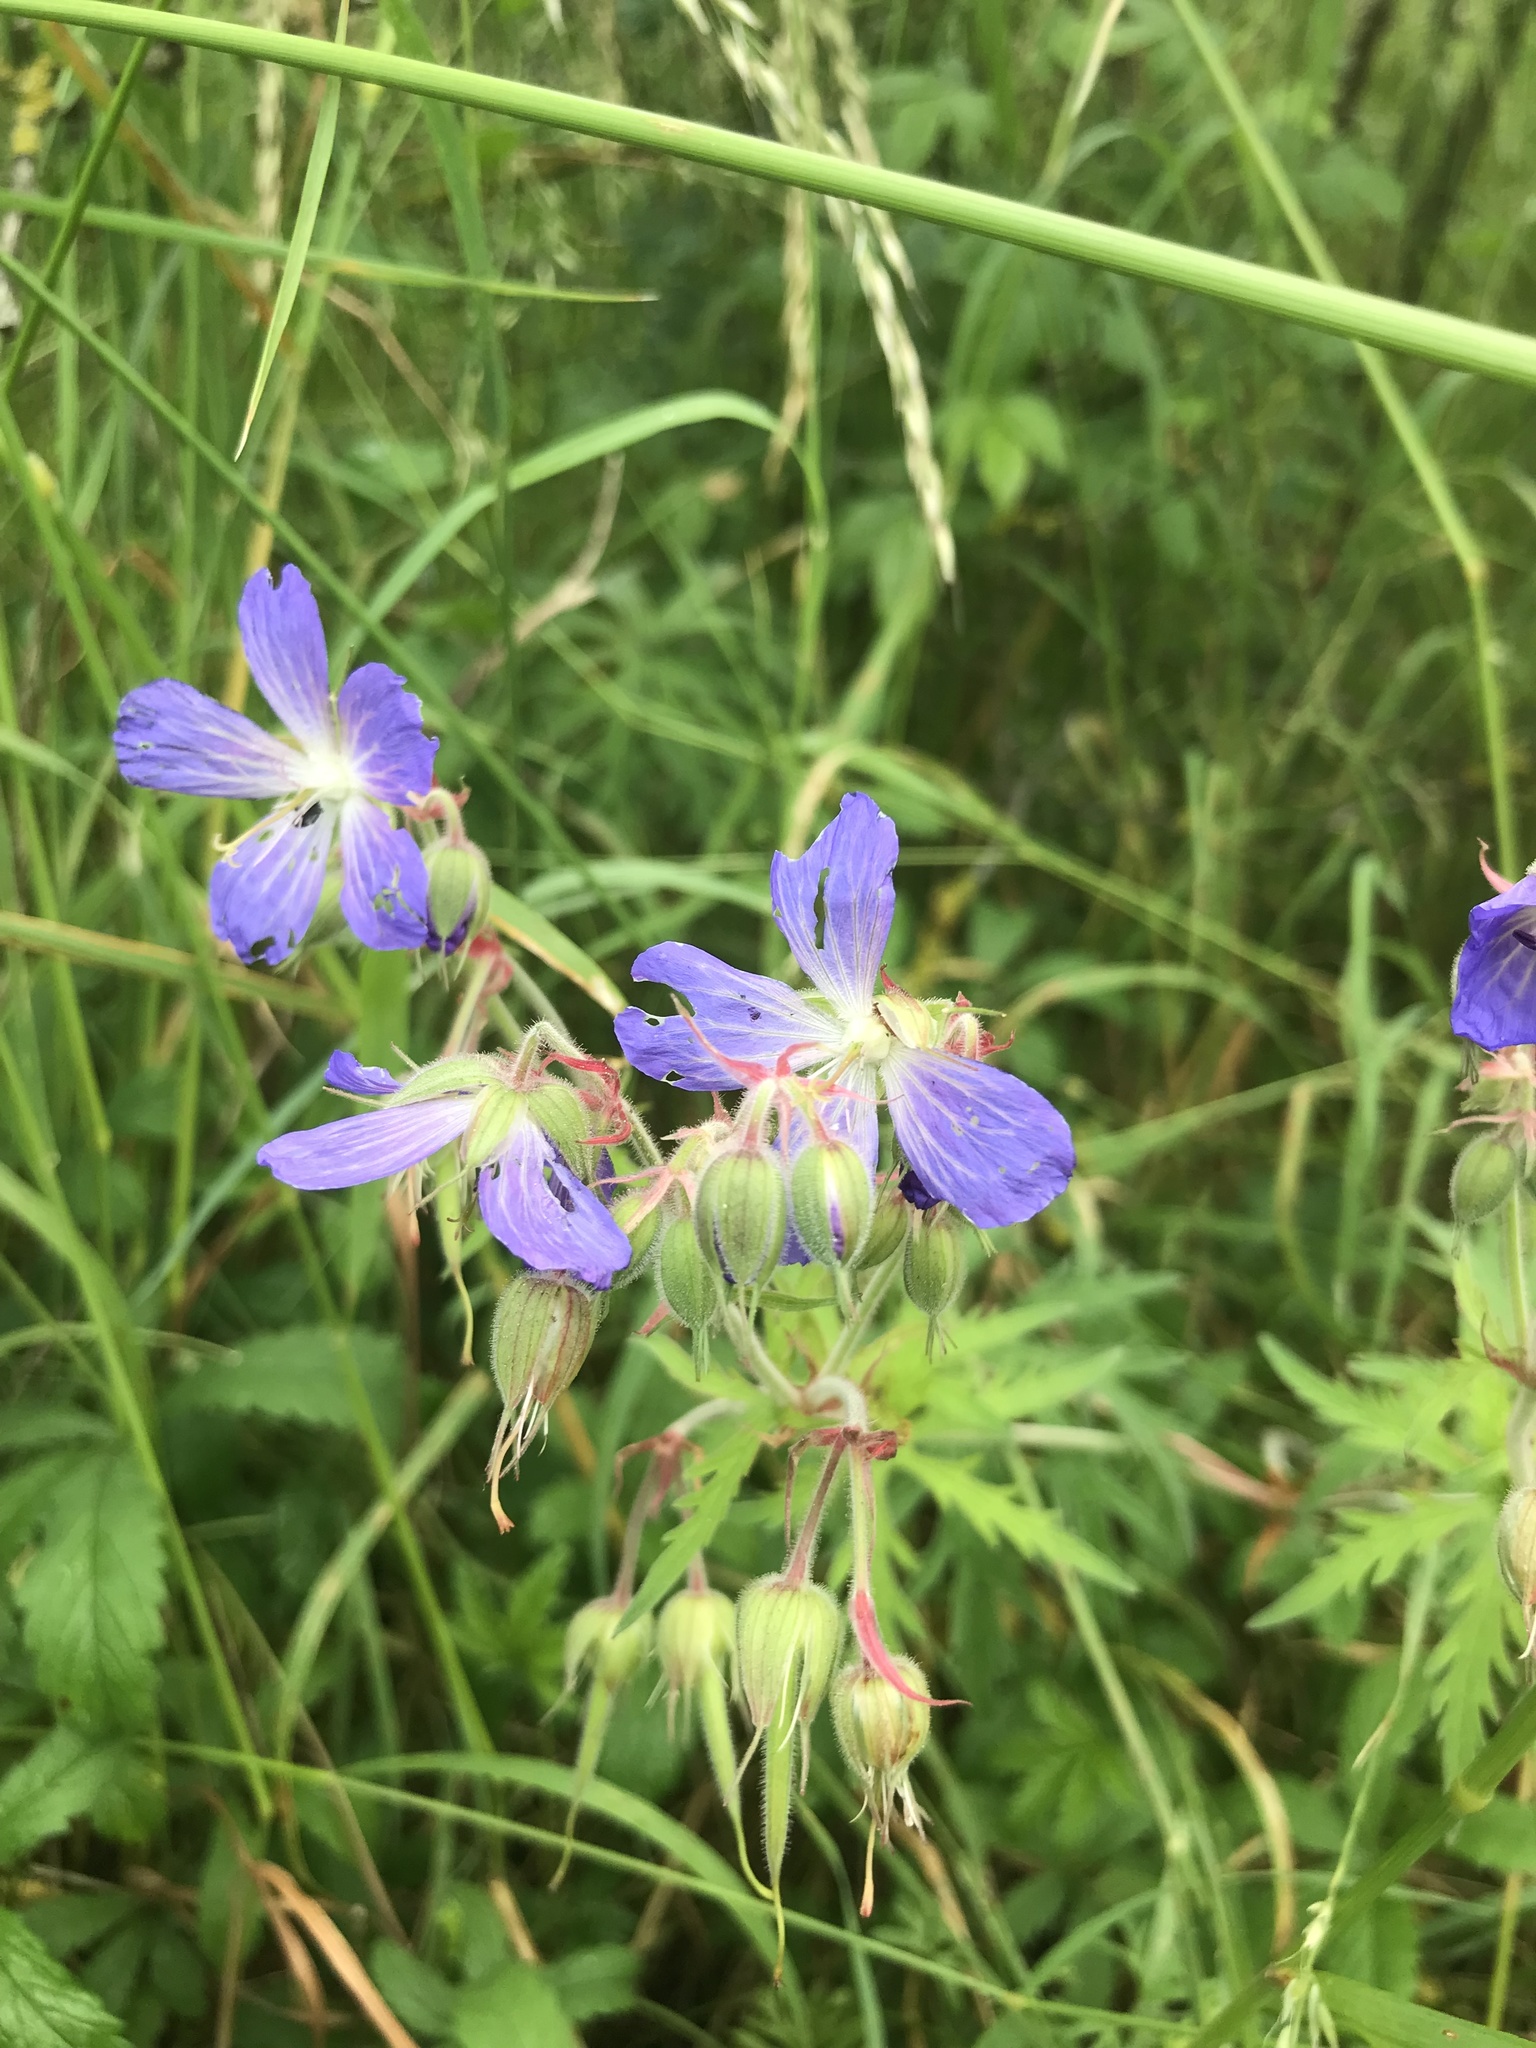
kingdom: Plantae
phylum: Tracheophyta
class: Magnoliopsida
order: Geraniales
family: Geraniaceae
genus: Geranium
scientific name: Geranium pratense
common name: Meadow crane's-bill
